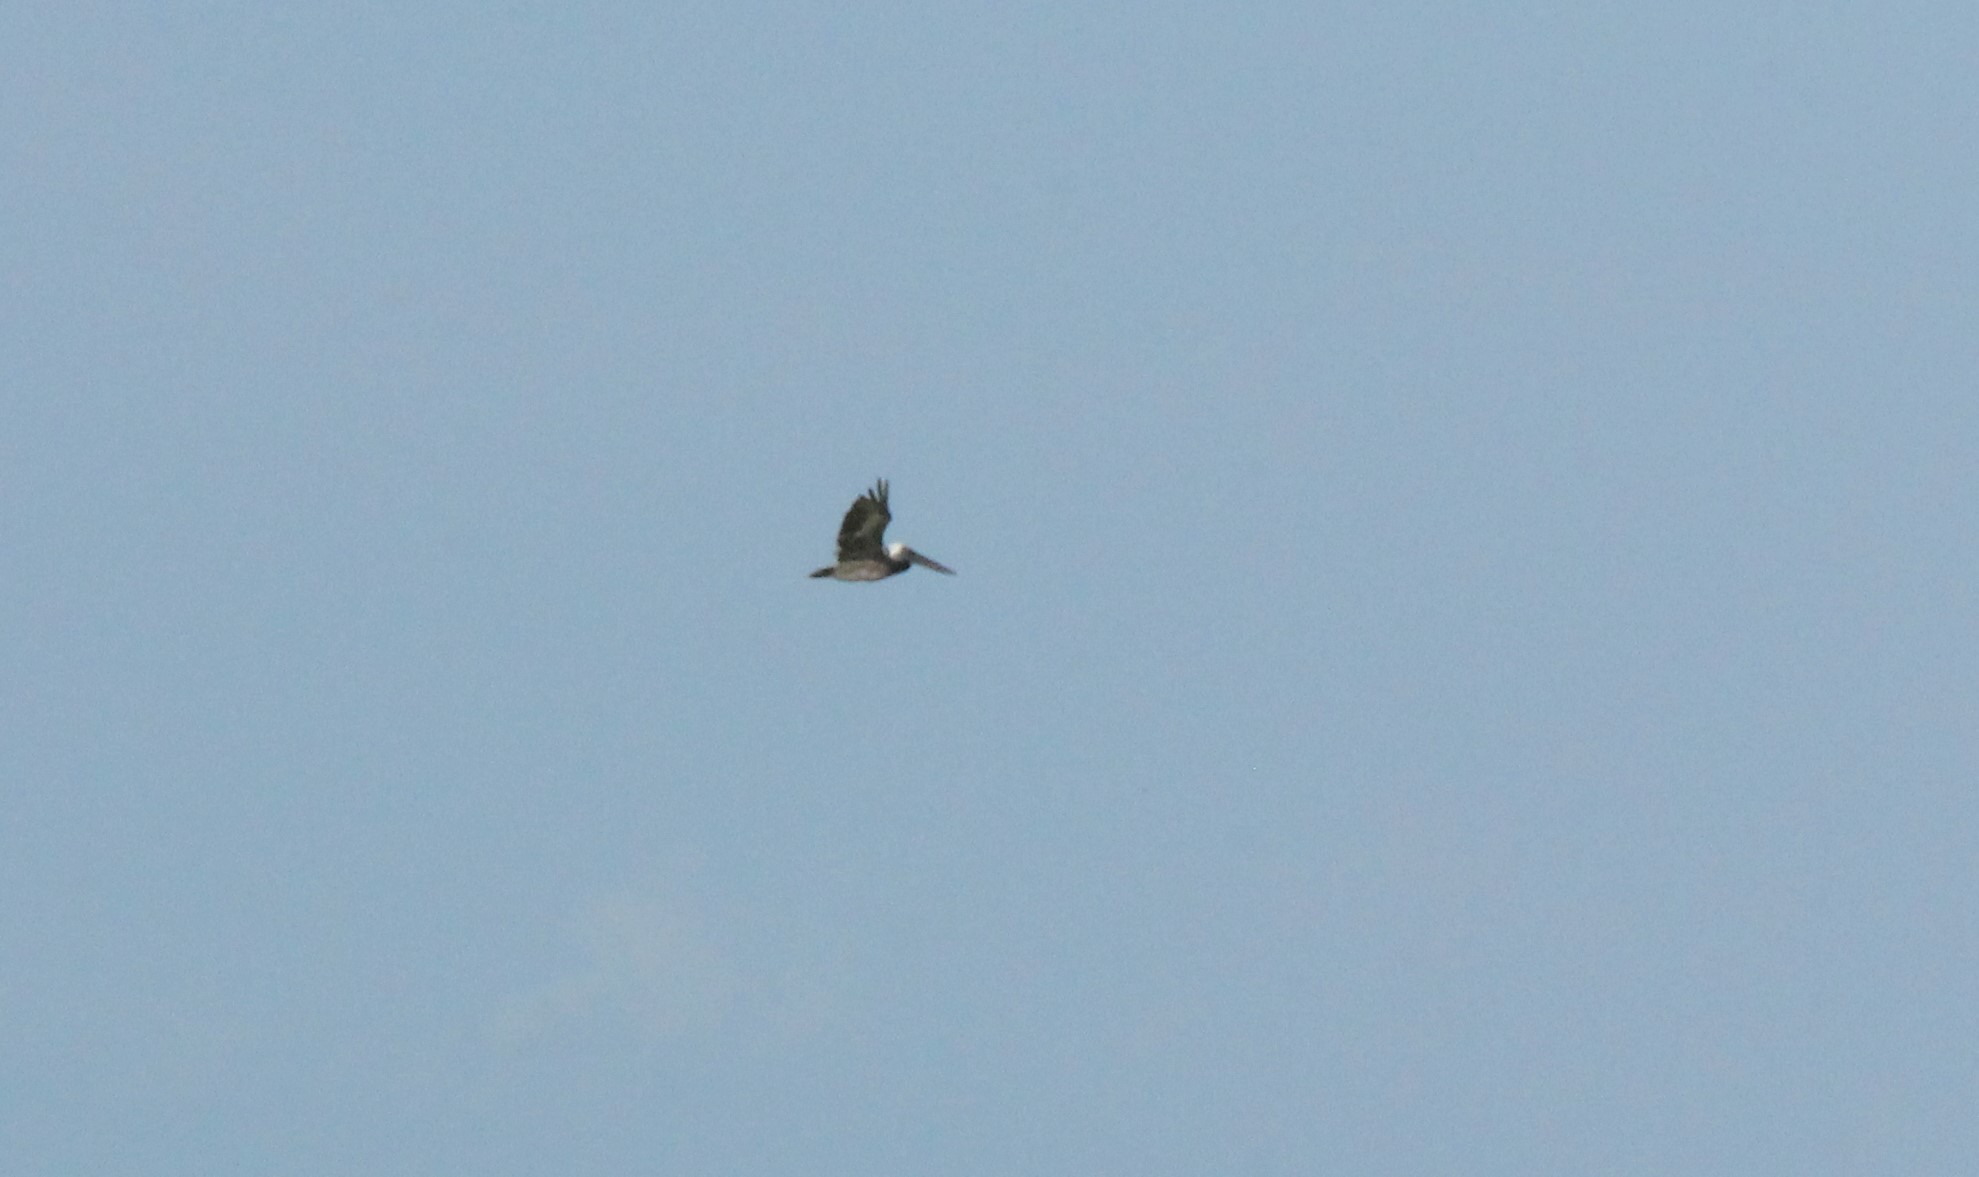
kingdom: Animalia
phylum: Chordata
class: Aves
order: Pelecaniformes
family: Pelecanidae
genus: Pelecanus
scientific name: Pelecanus occidentalis
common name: Brown pelican
